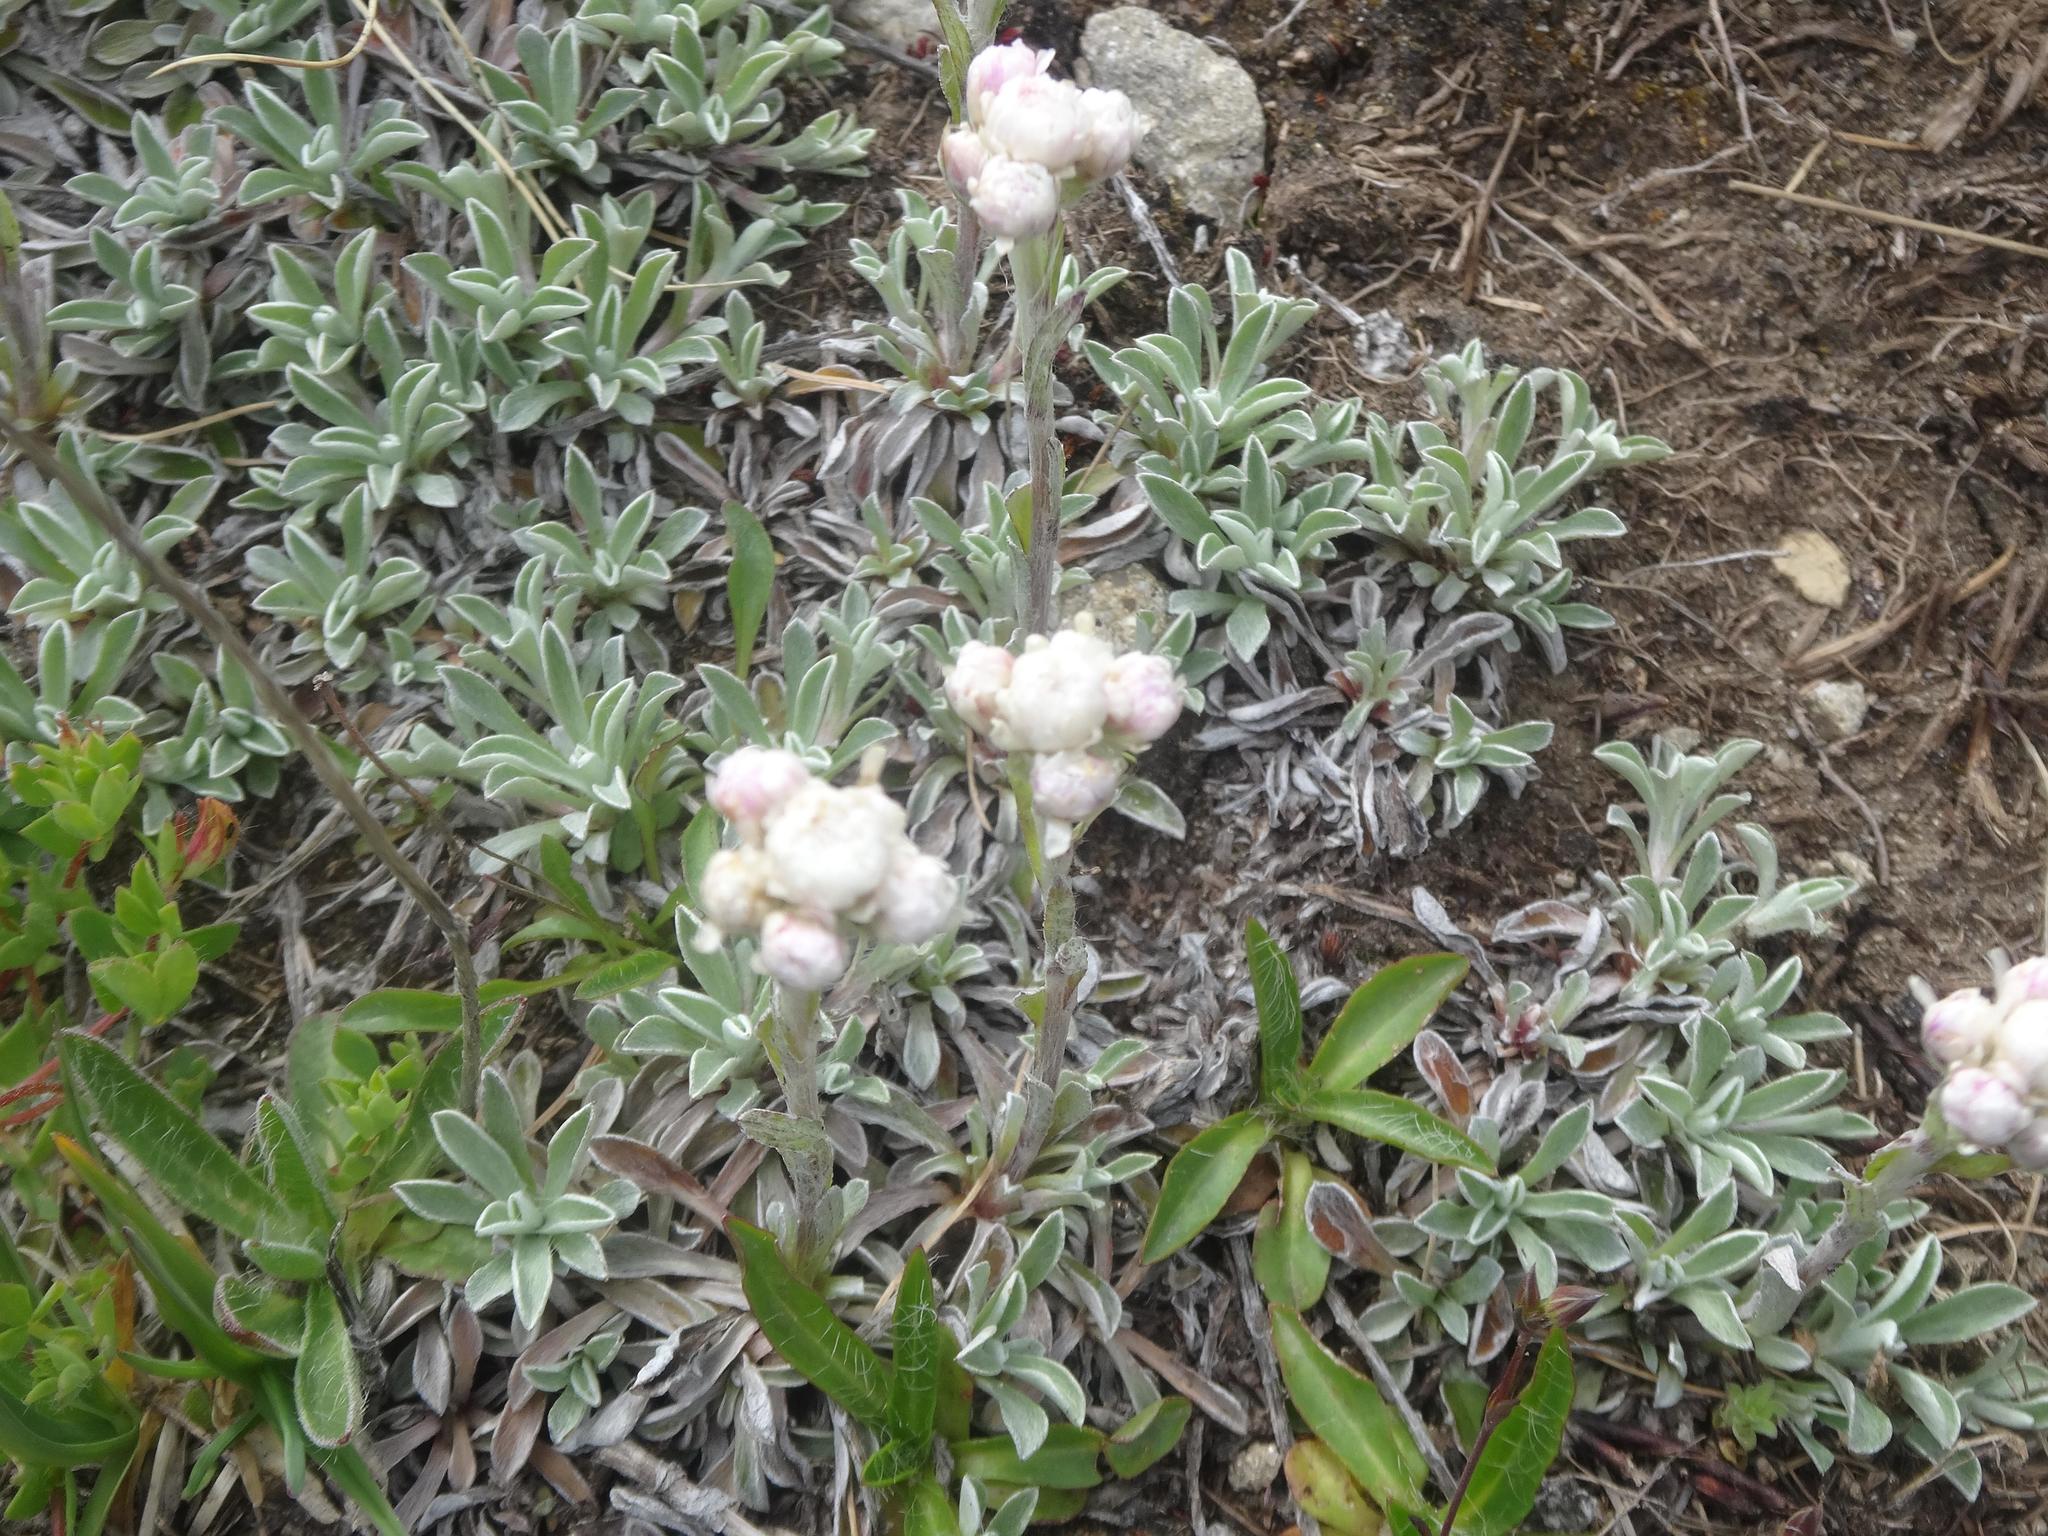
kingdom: Plantae
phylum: Tracheophyta
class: Magnoliopsida
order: Asterales
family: Asteraceae
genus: Antennaria
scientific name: Antennaria dioica
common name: Mountain everlasting
